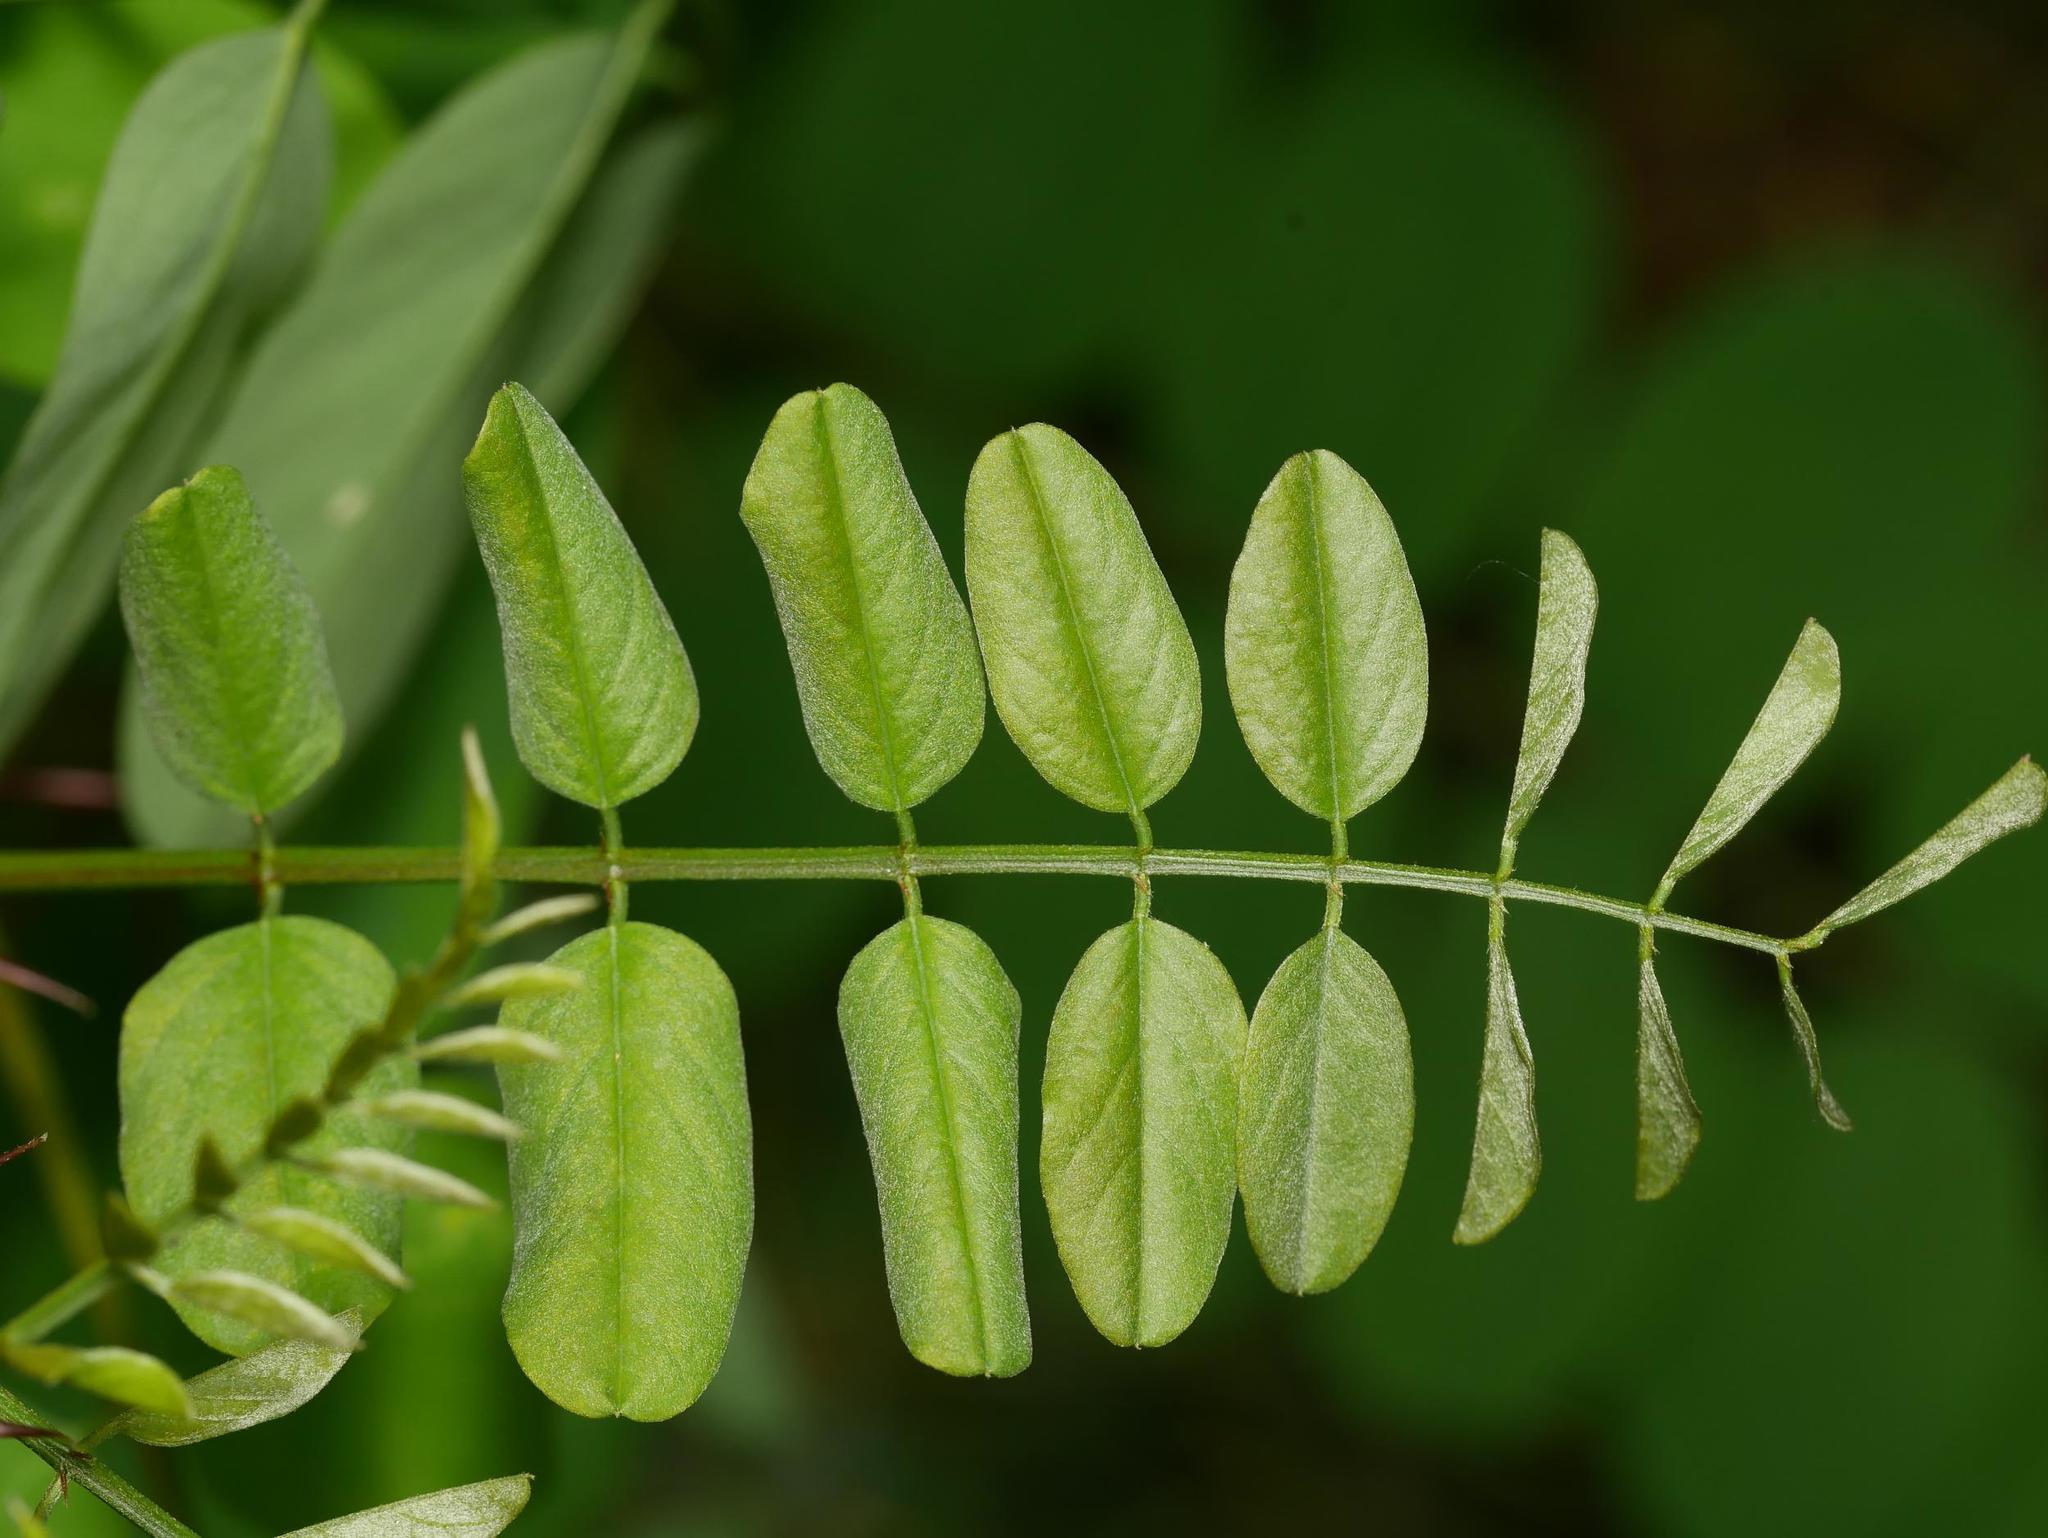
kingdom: Plantae
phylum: Tracheophyta
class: Magnoliopsida
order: Fabales
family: Fabaceae
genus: Robinia
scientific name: Robinia pseudoacacia
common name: Black locust
